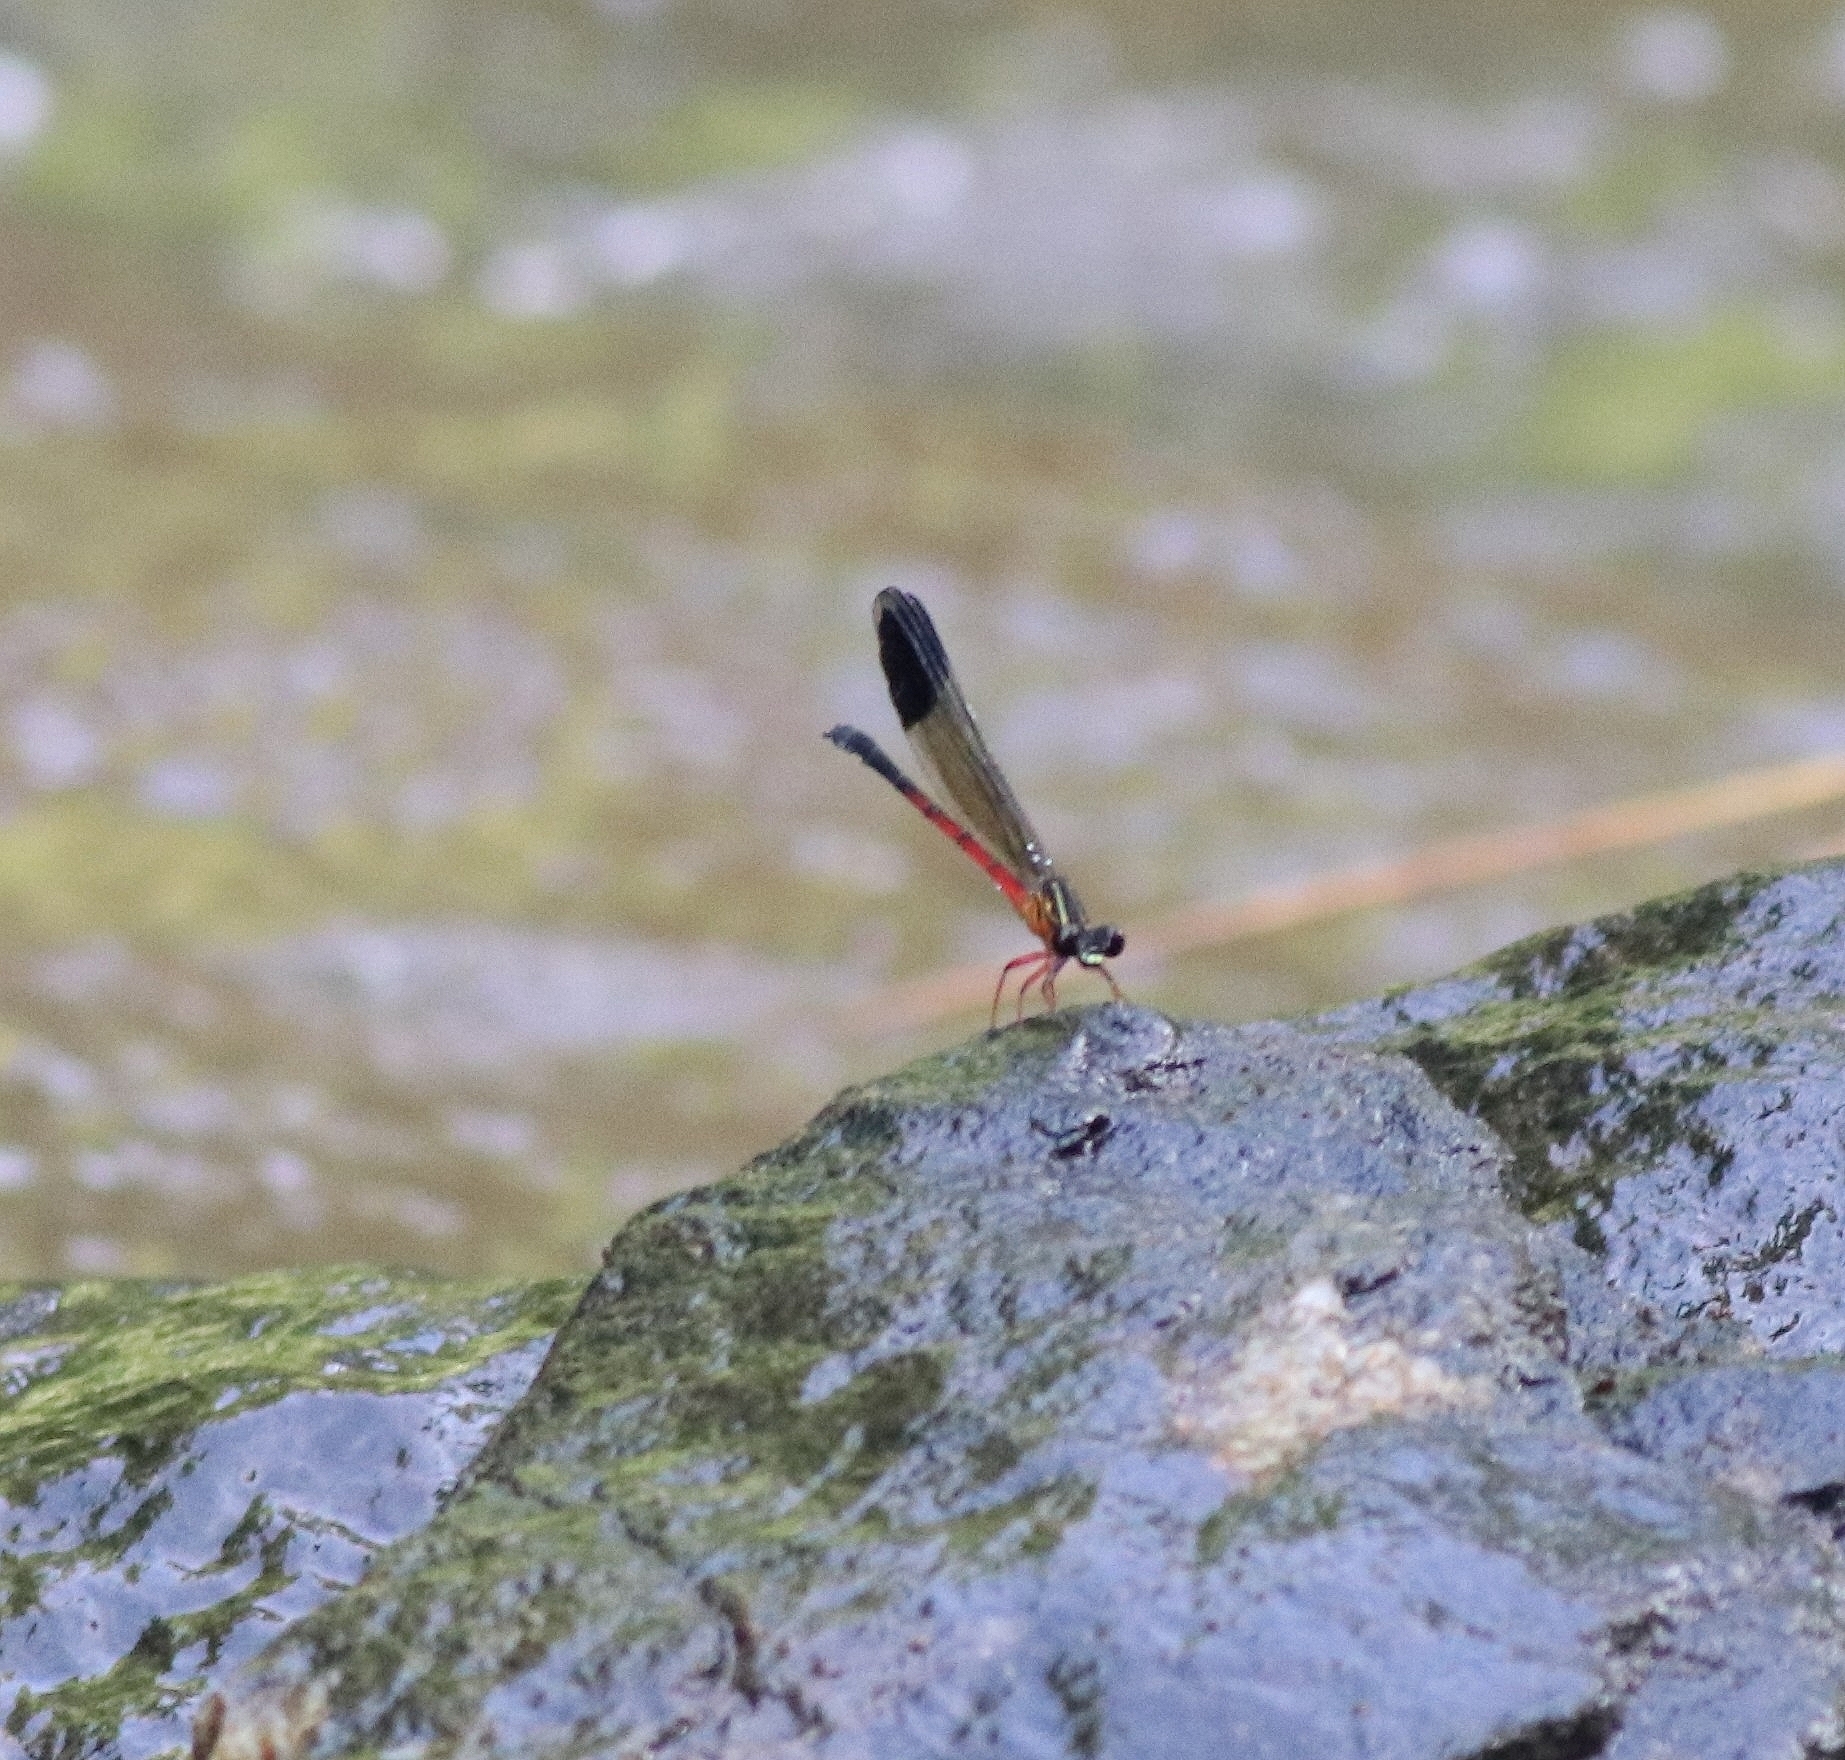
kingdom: Animalia
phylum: Arthropoda
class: Insecta
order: Odonata
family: Euphaeidae
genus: Euphaea
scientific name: Euphaea fraseri
